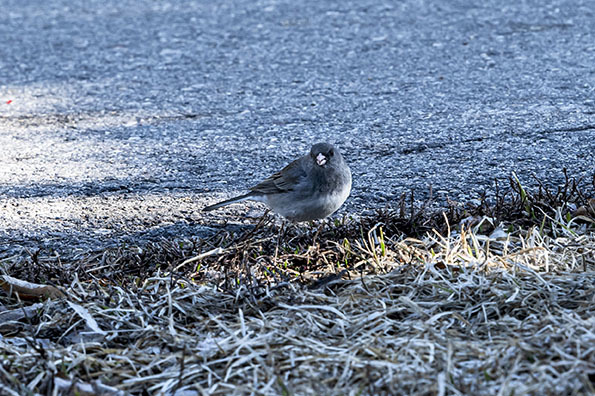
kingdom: Animalia
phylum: Chordata
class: Aves
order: Passeriformes
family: Passerellidae
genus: Junco
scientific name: Junco hyemalis
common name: Dark-eyed junco
